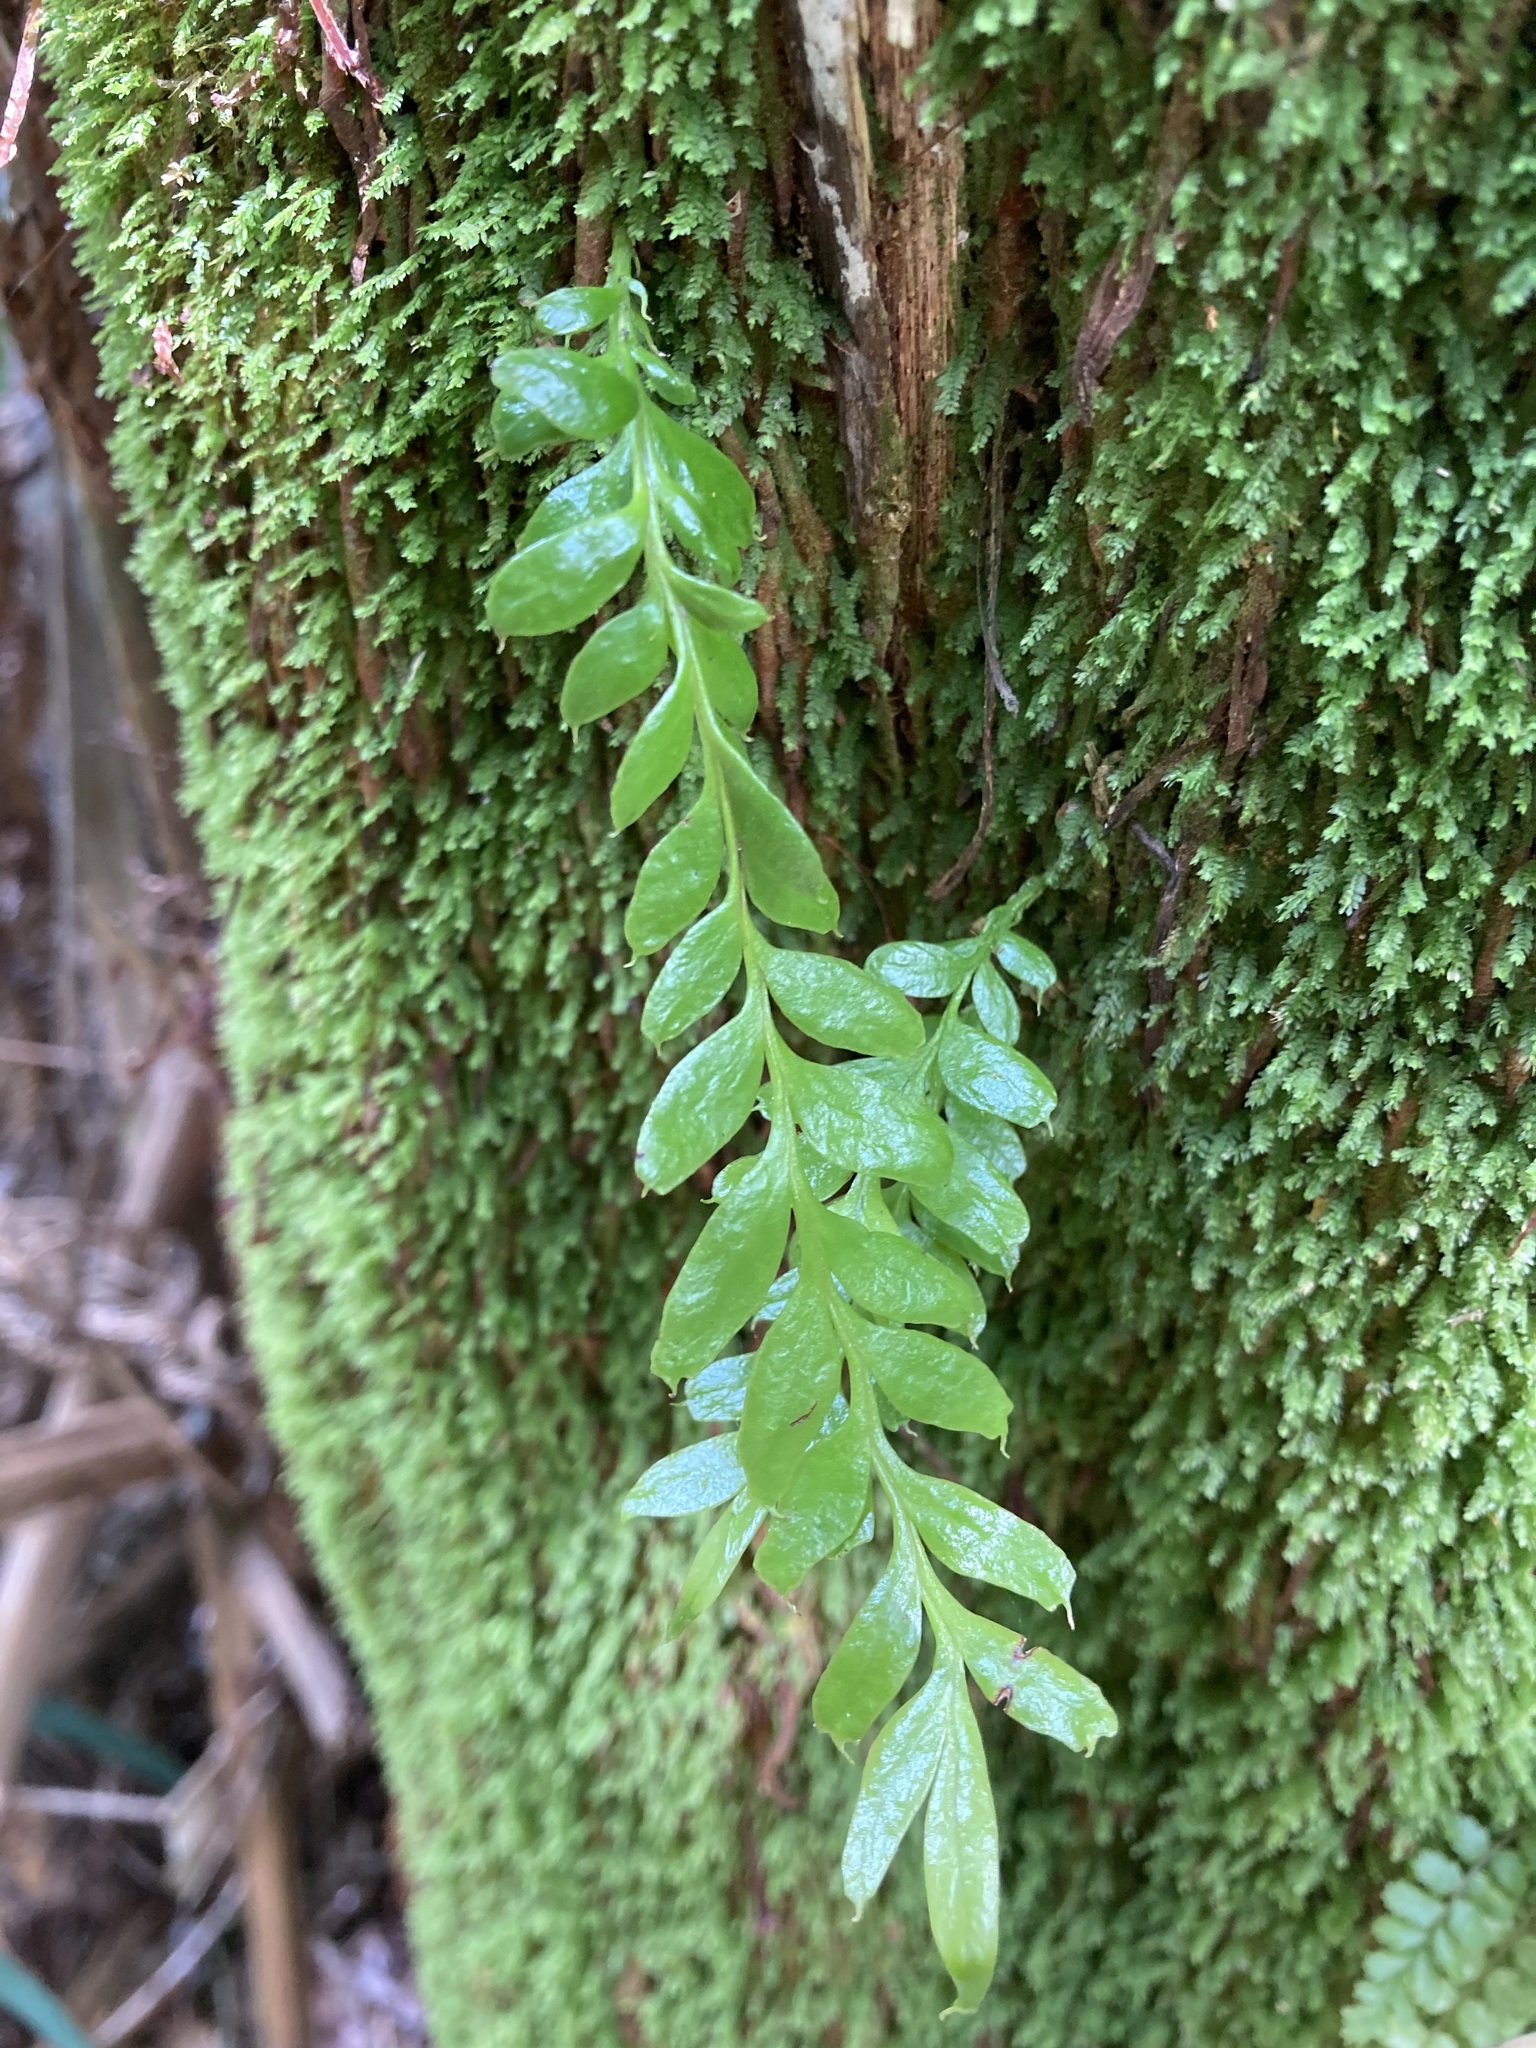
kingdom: Plantae
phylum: Tracheophyta
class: Polypodiopsida
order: Psilotales
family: Psilotaceae
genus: Tmesipteris
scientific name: Tmesipteris lanceolata
